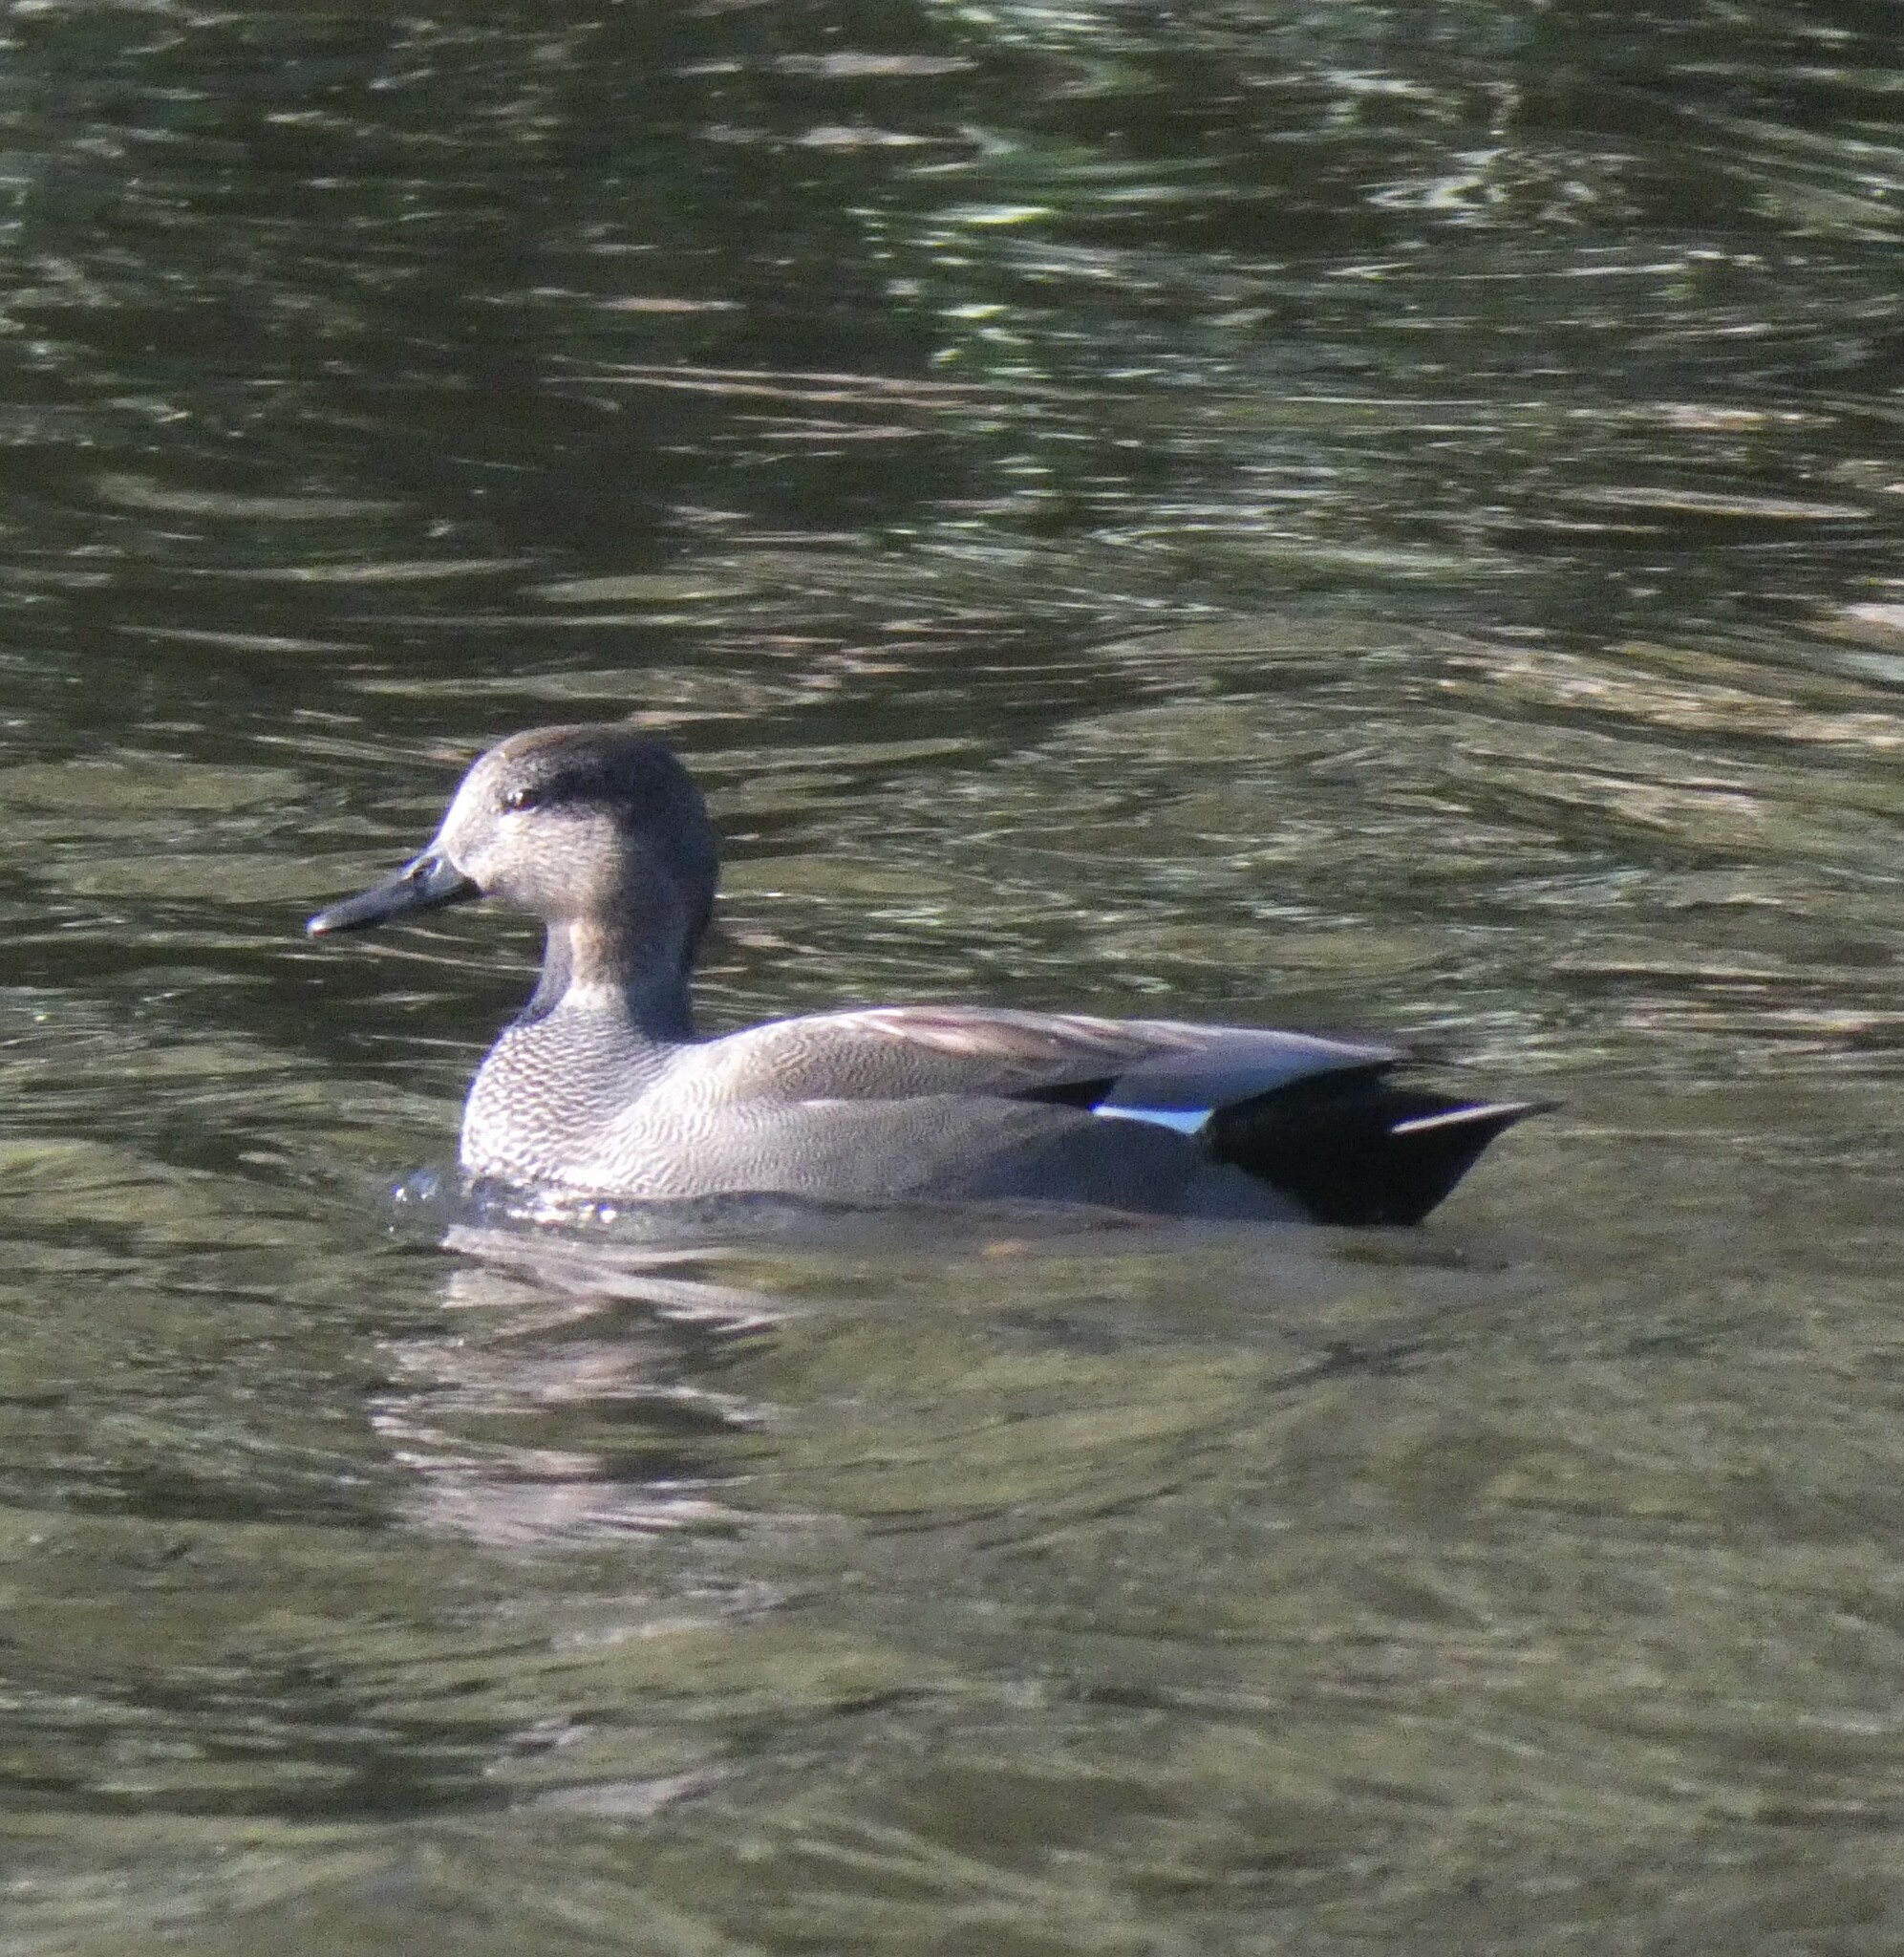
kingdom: Animalia
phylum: Chordata
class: Aves
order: Anseriformes
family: Anatidae
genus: Mareca
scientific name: Mareca strepera
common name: Gadwall
